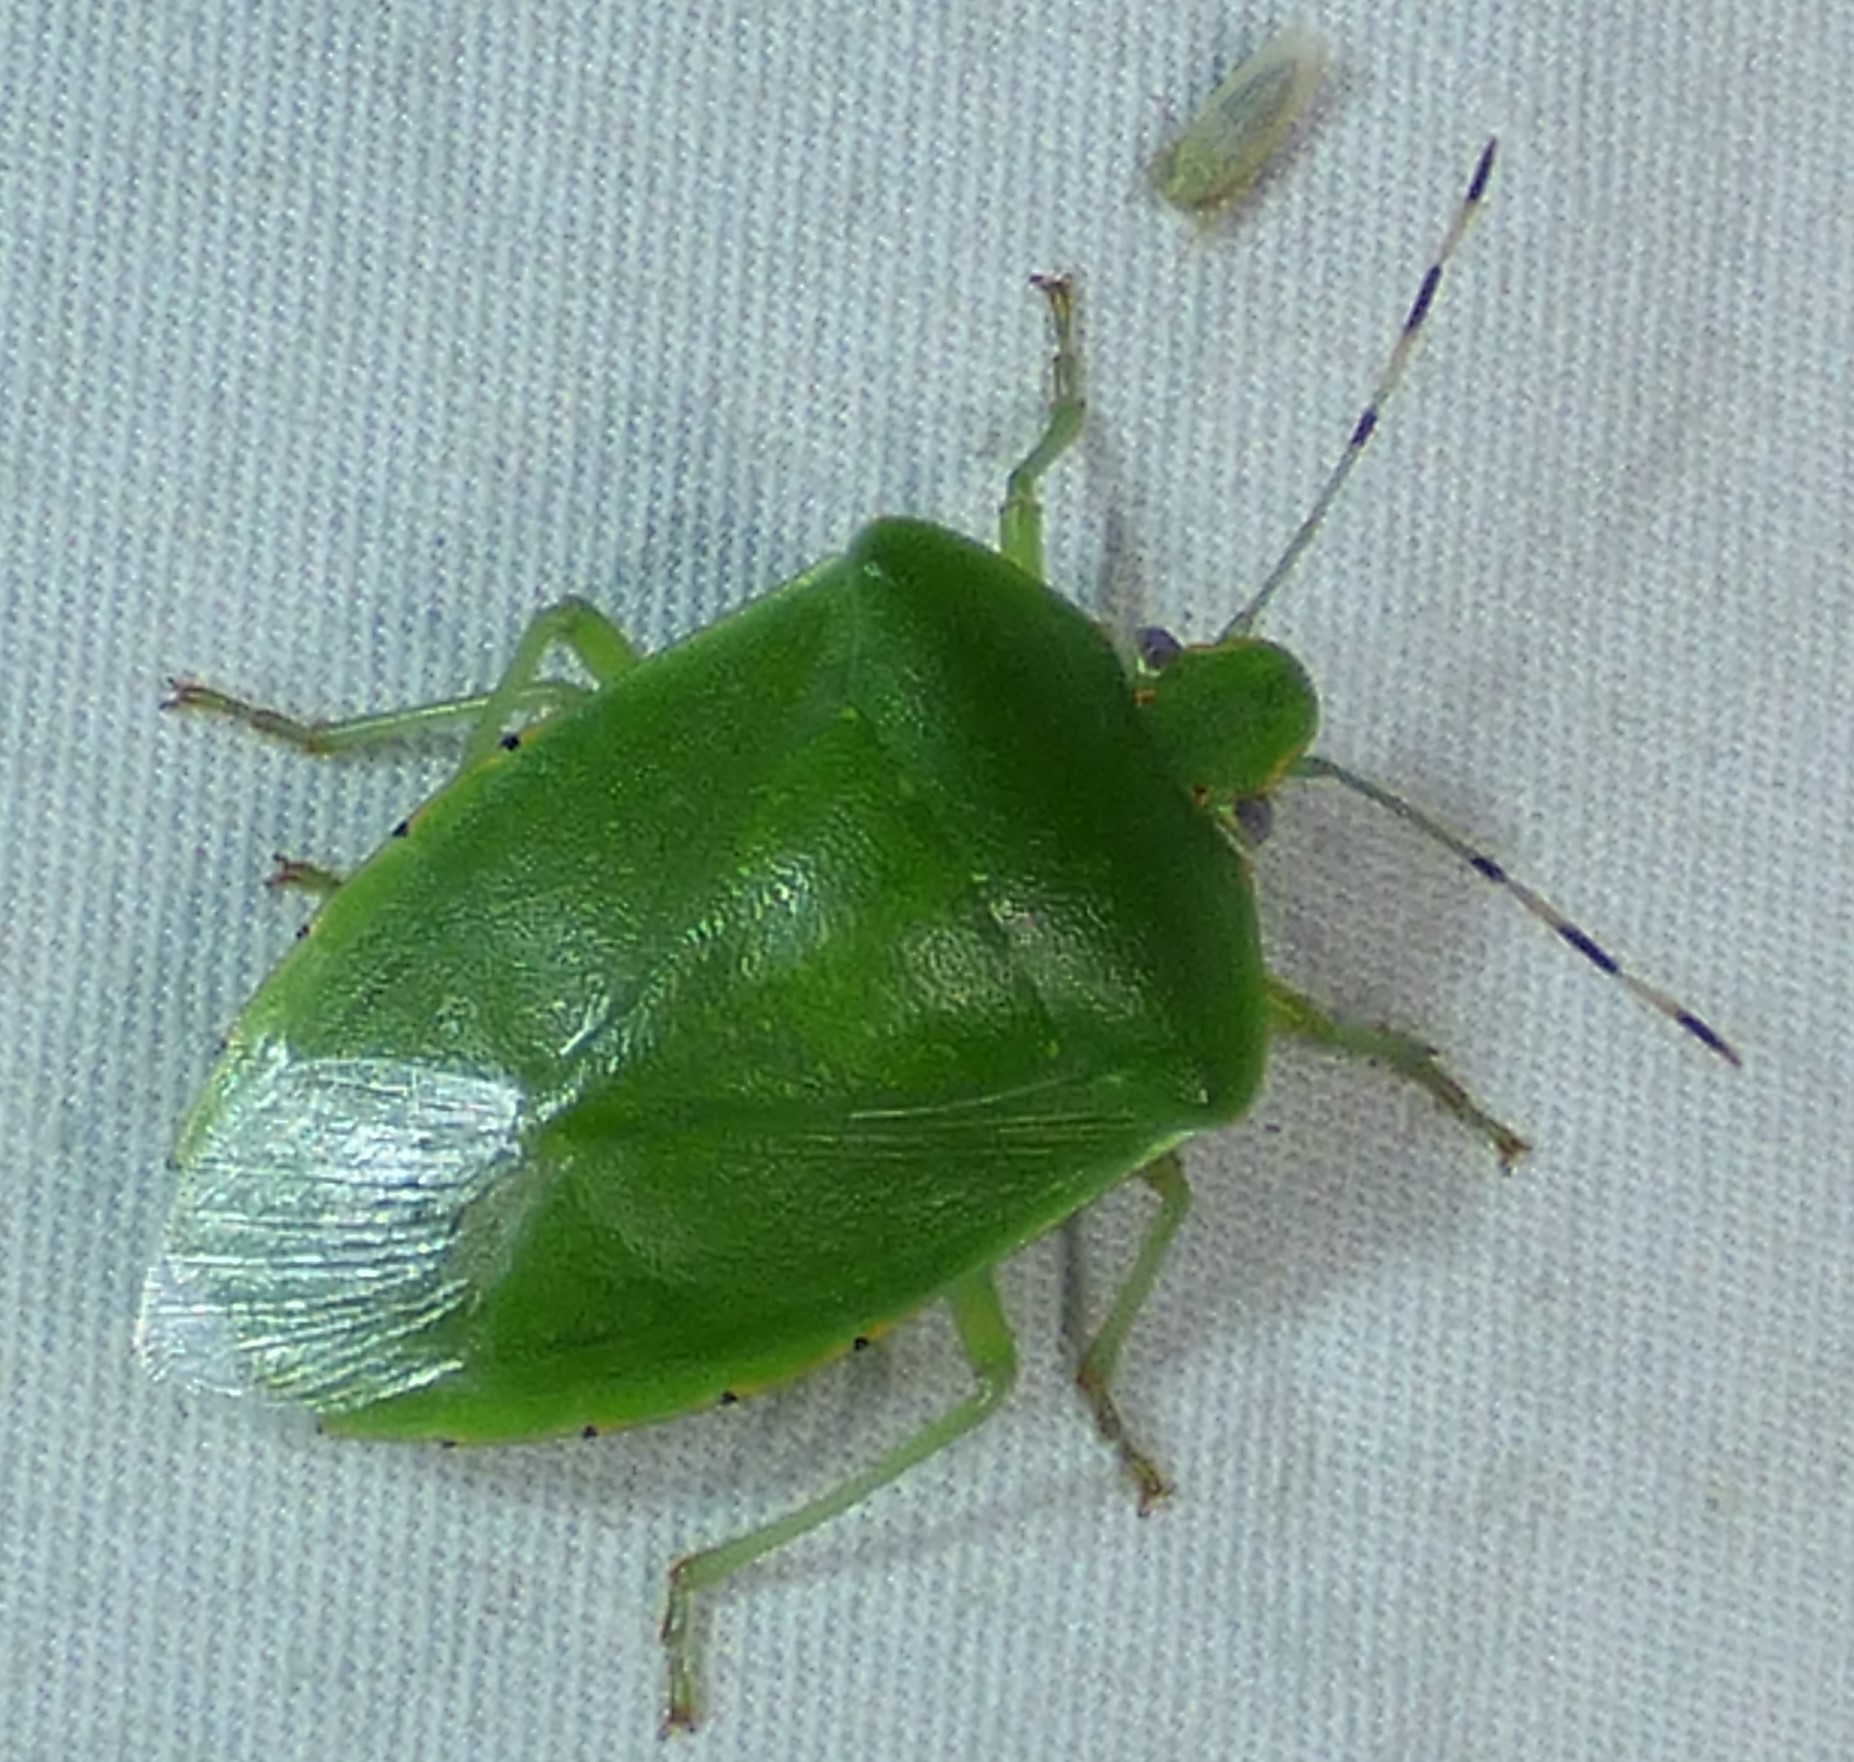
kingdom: Animalia
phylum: Arthropoda
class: Insecta
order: Hemiptera
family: Pentatomidae
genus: Chinavia
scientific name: Chinavia hilaris
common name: Green stink bug
